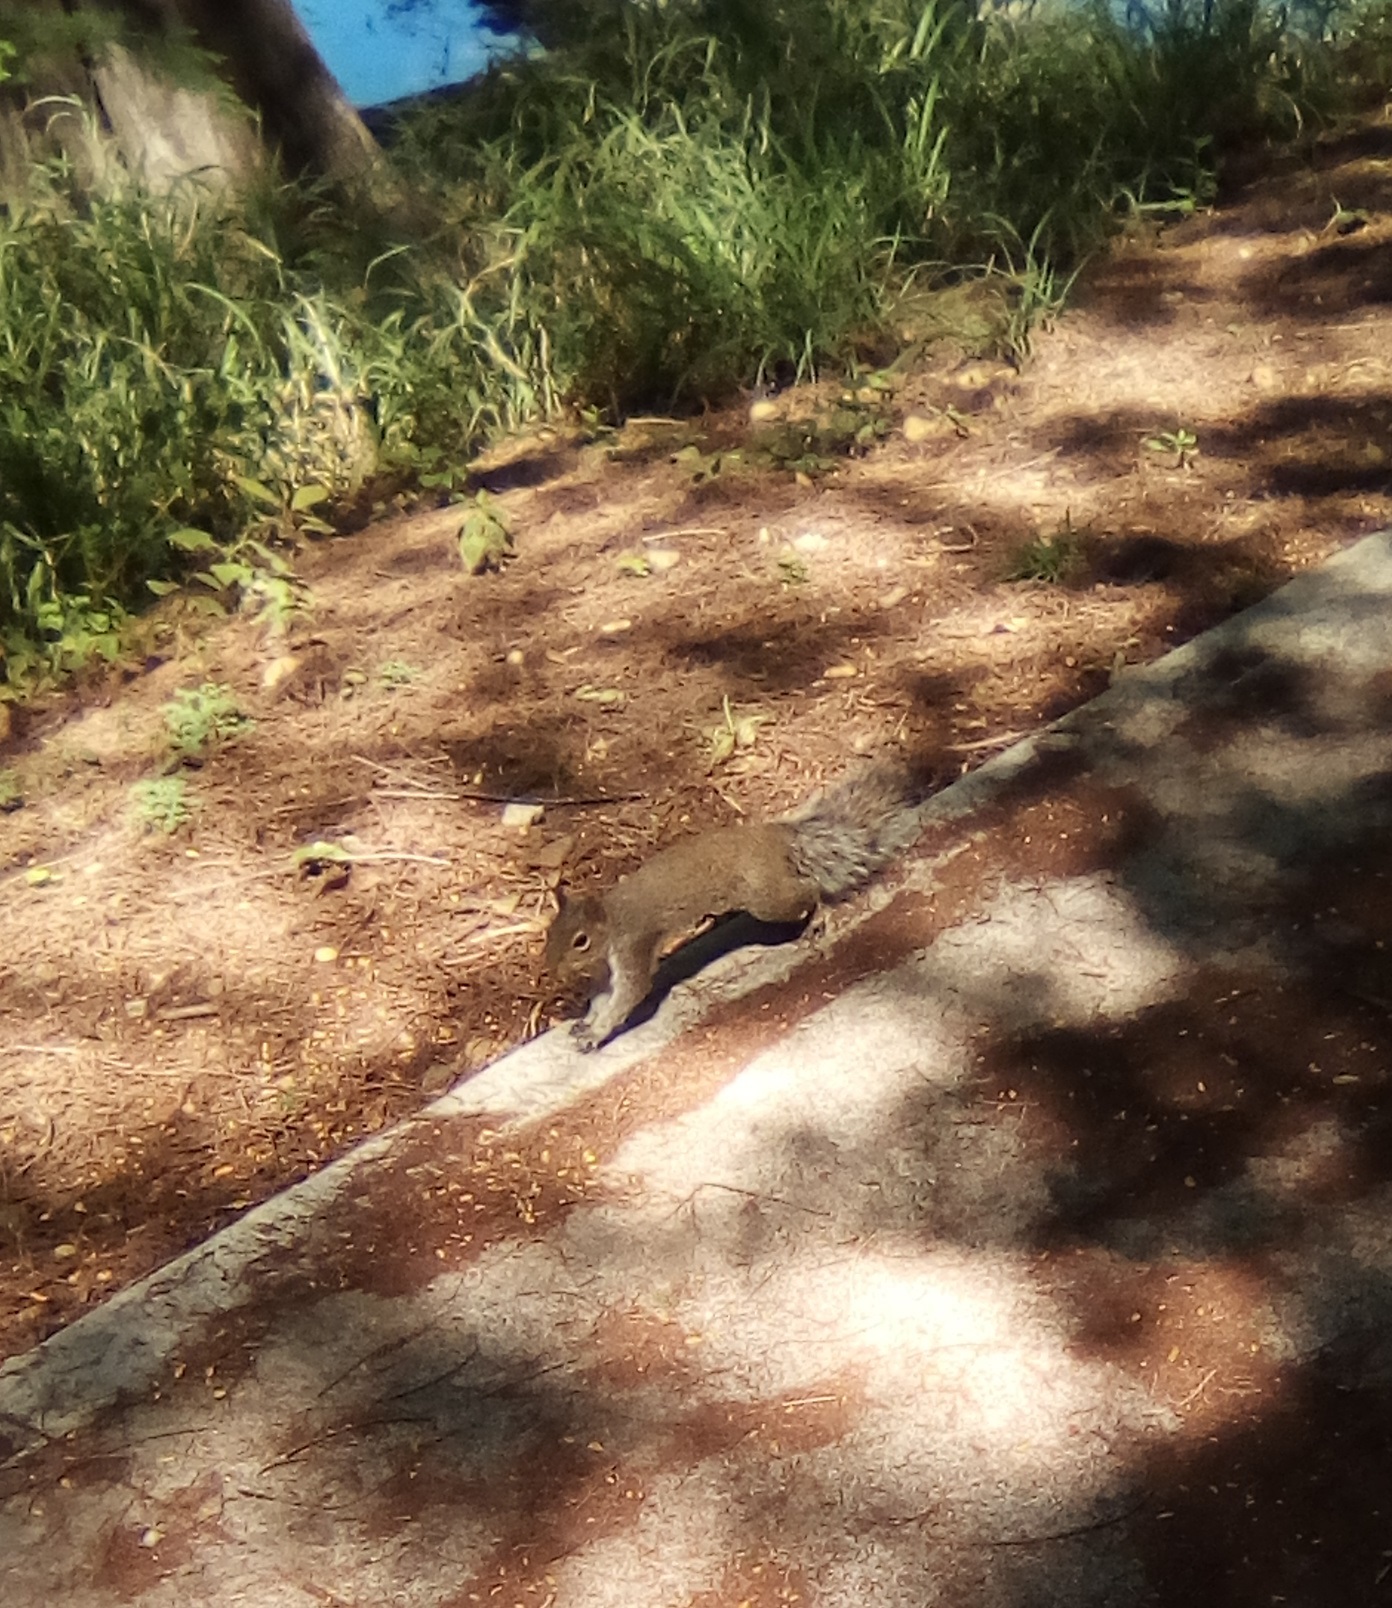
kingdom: Animalia
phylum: Chordata
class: Mammalia
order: Rodentia
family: Sciuridae
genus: Sciurus
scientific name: Sciurus alleni
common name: Allen's squirrel
